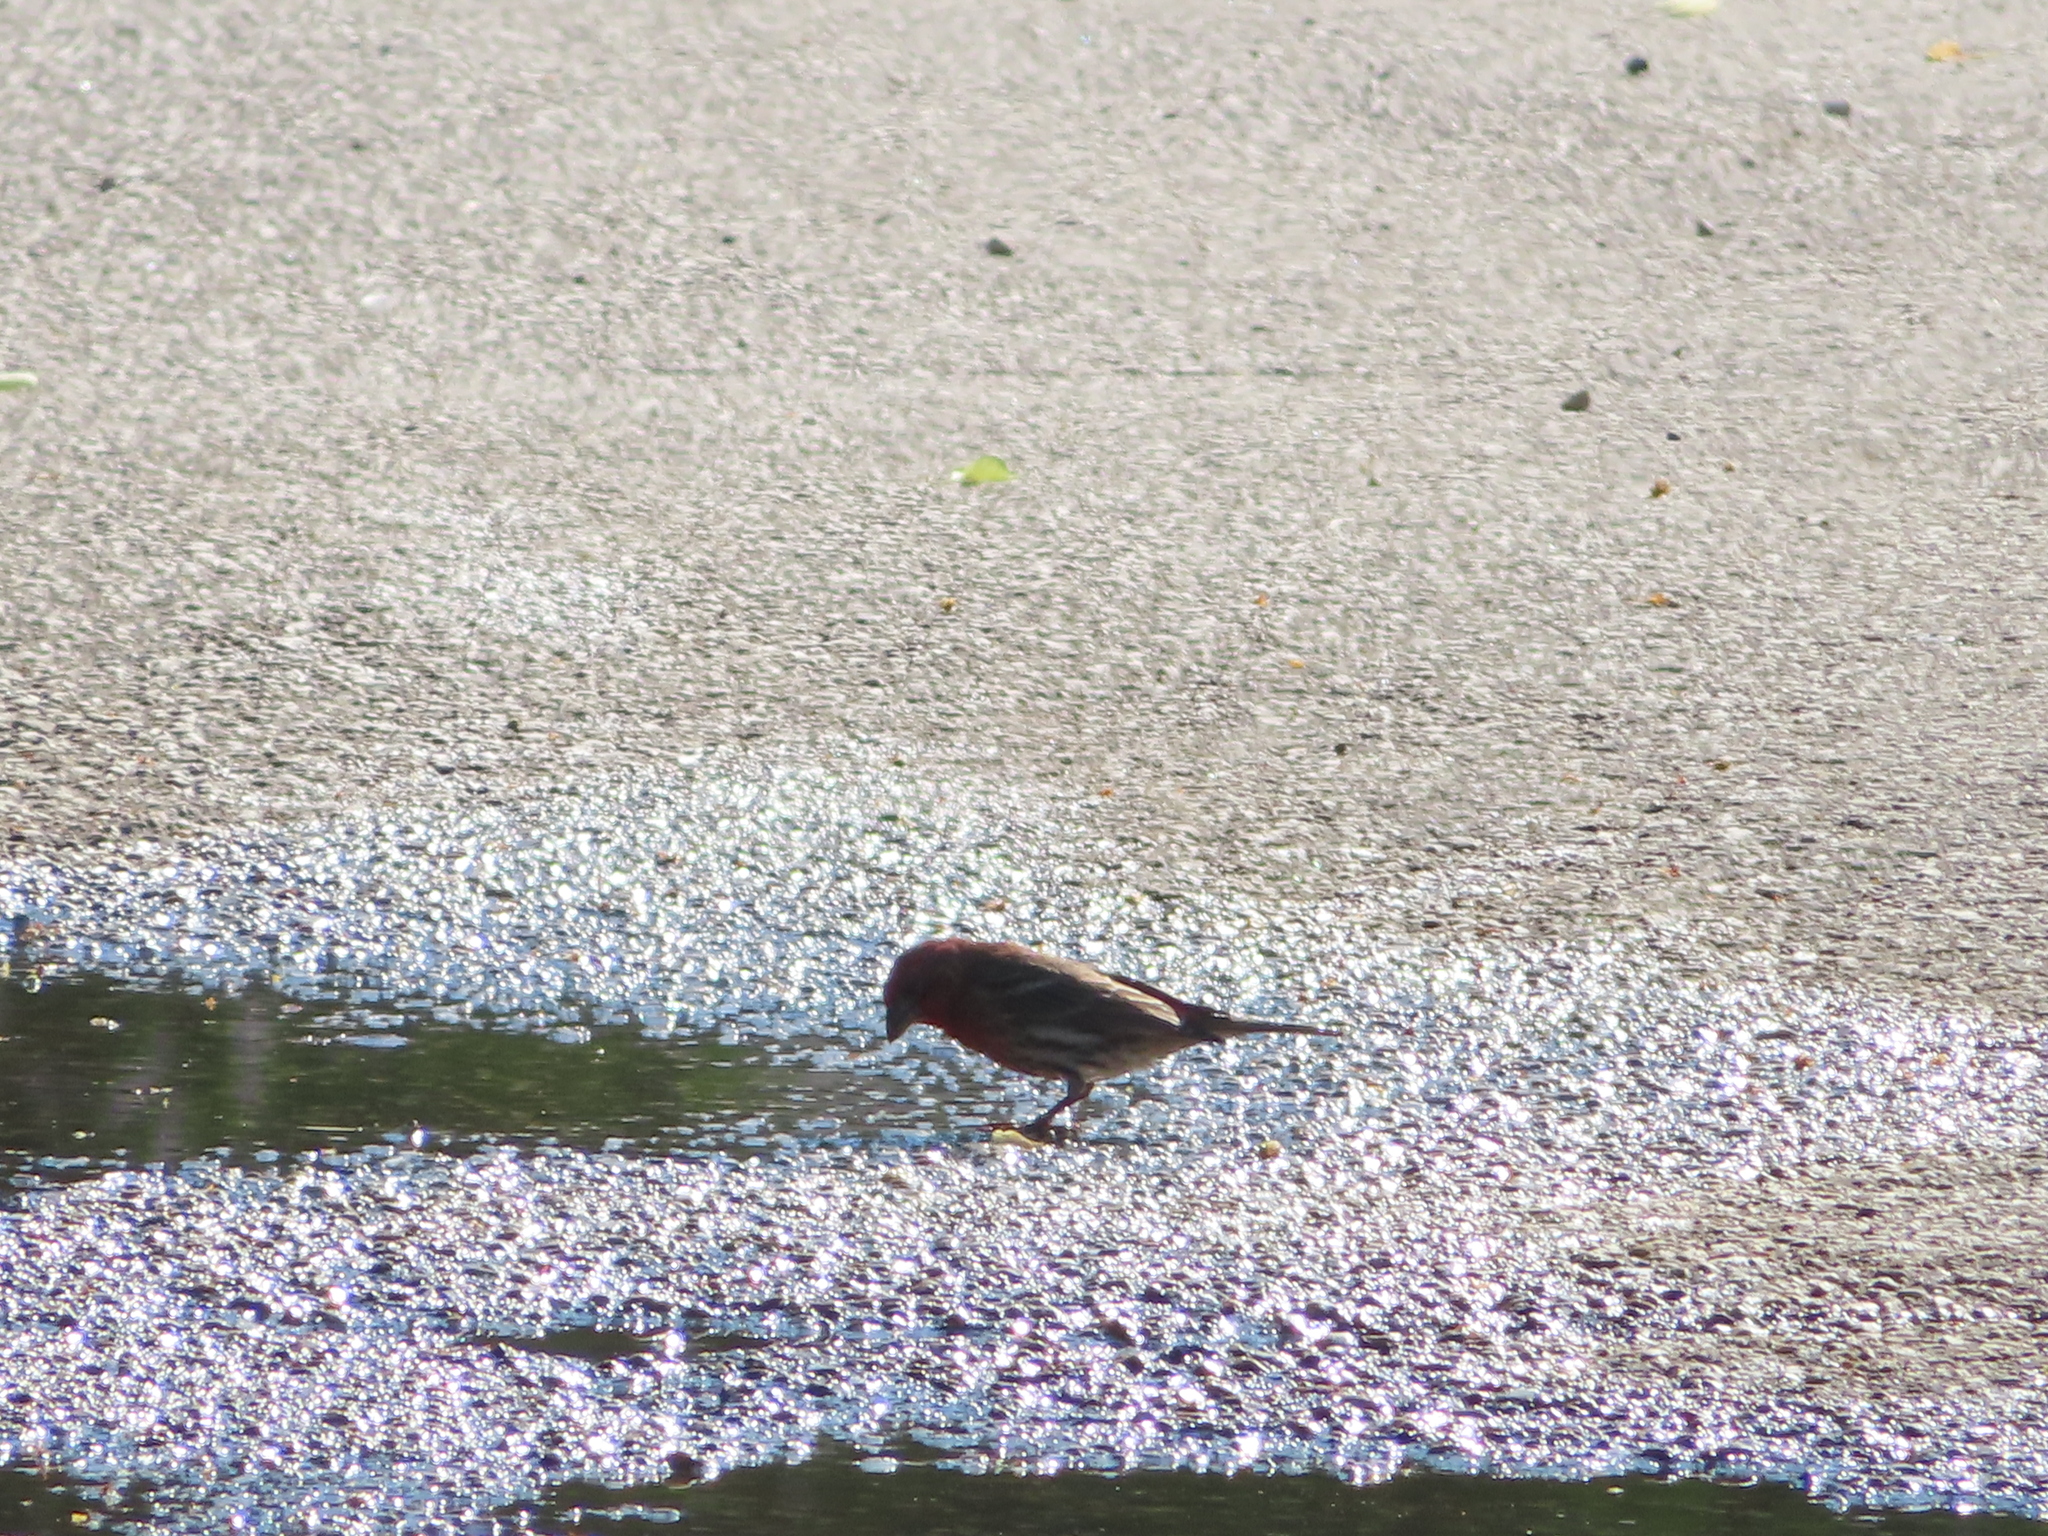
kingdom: Animalia
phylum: Chordata
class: Aves
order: Passeriformes
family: Fringillidae
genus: Haemorhous
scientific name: Haemorhous mexicanus
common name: House finch
